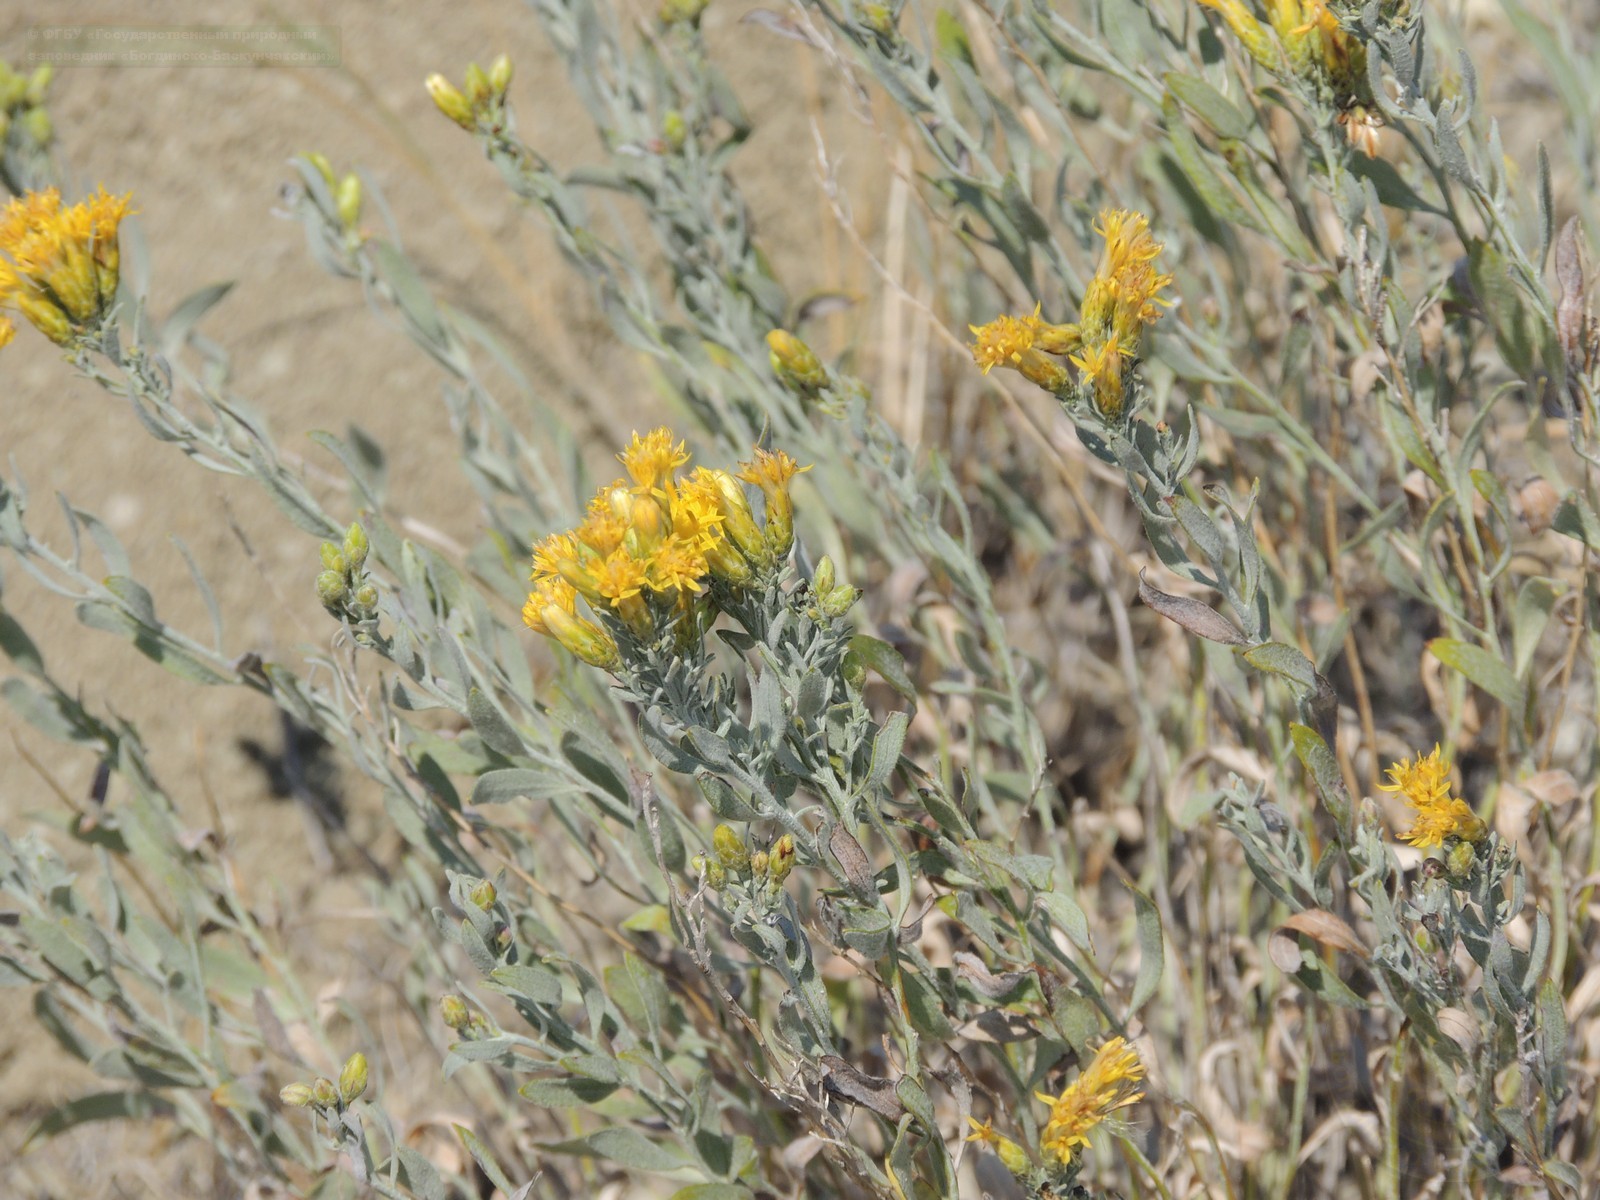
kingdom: Plantae
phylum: Tracheophyta
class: Magnoliopsida
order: Asterales
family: Asteraceae
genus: Galatella
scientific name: Galatella villosa
